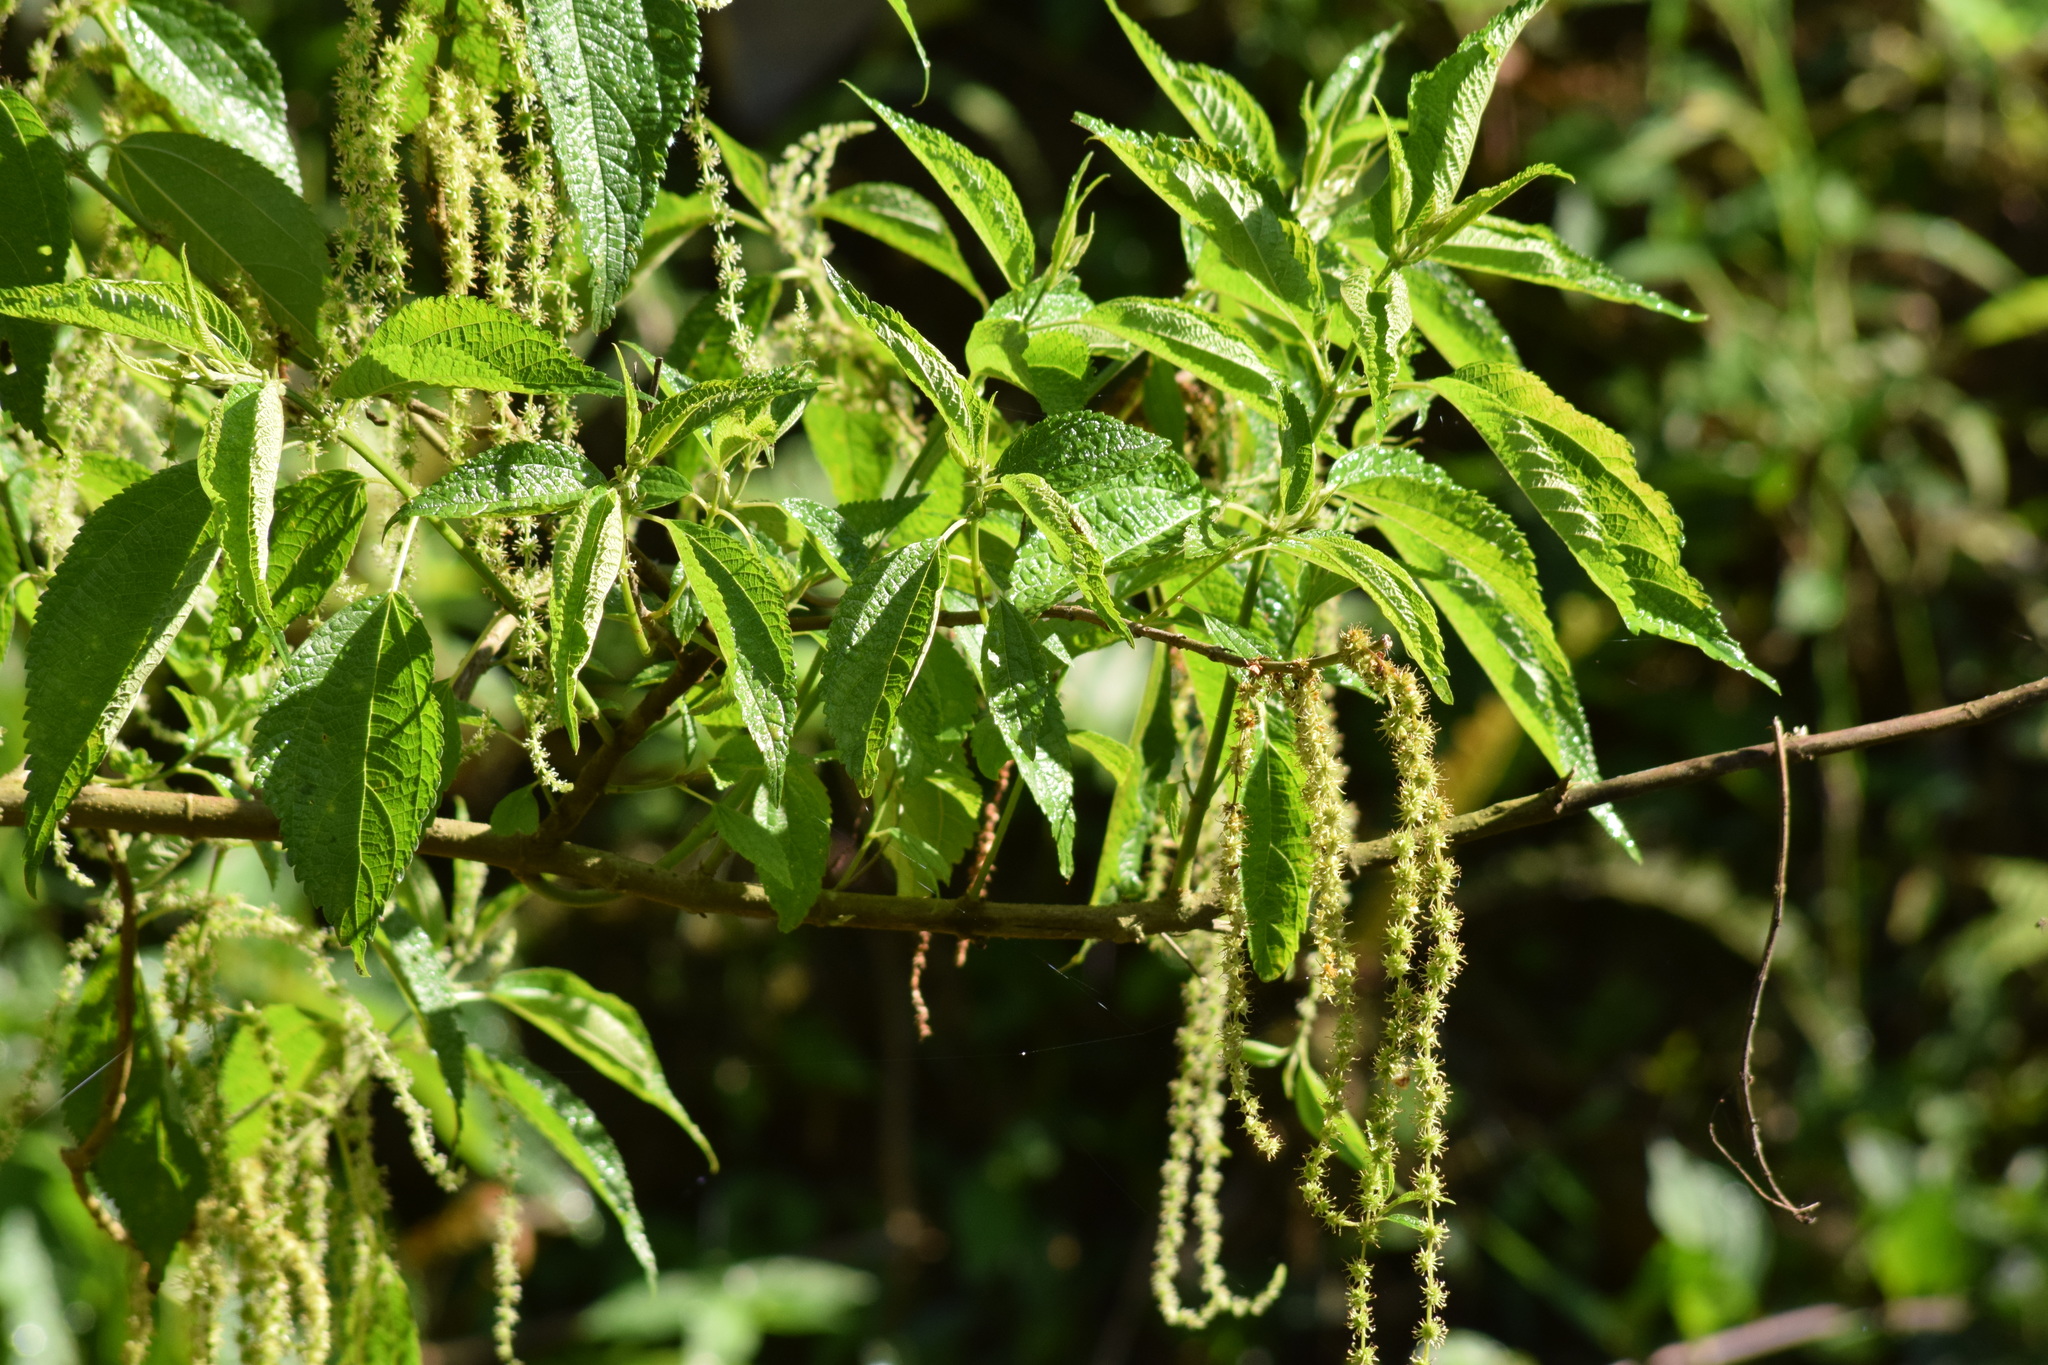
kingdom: Plantae
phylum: Tracheophyta
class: Magnoliopsida
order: Rosales
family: Urticaceae
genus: Boehmeria
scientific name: Boehmeria caudata
